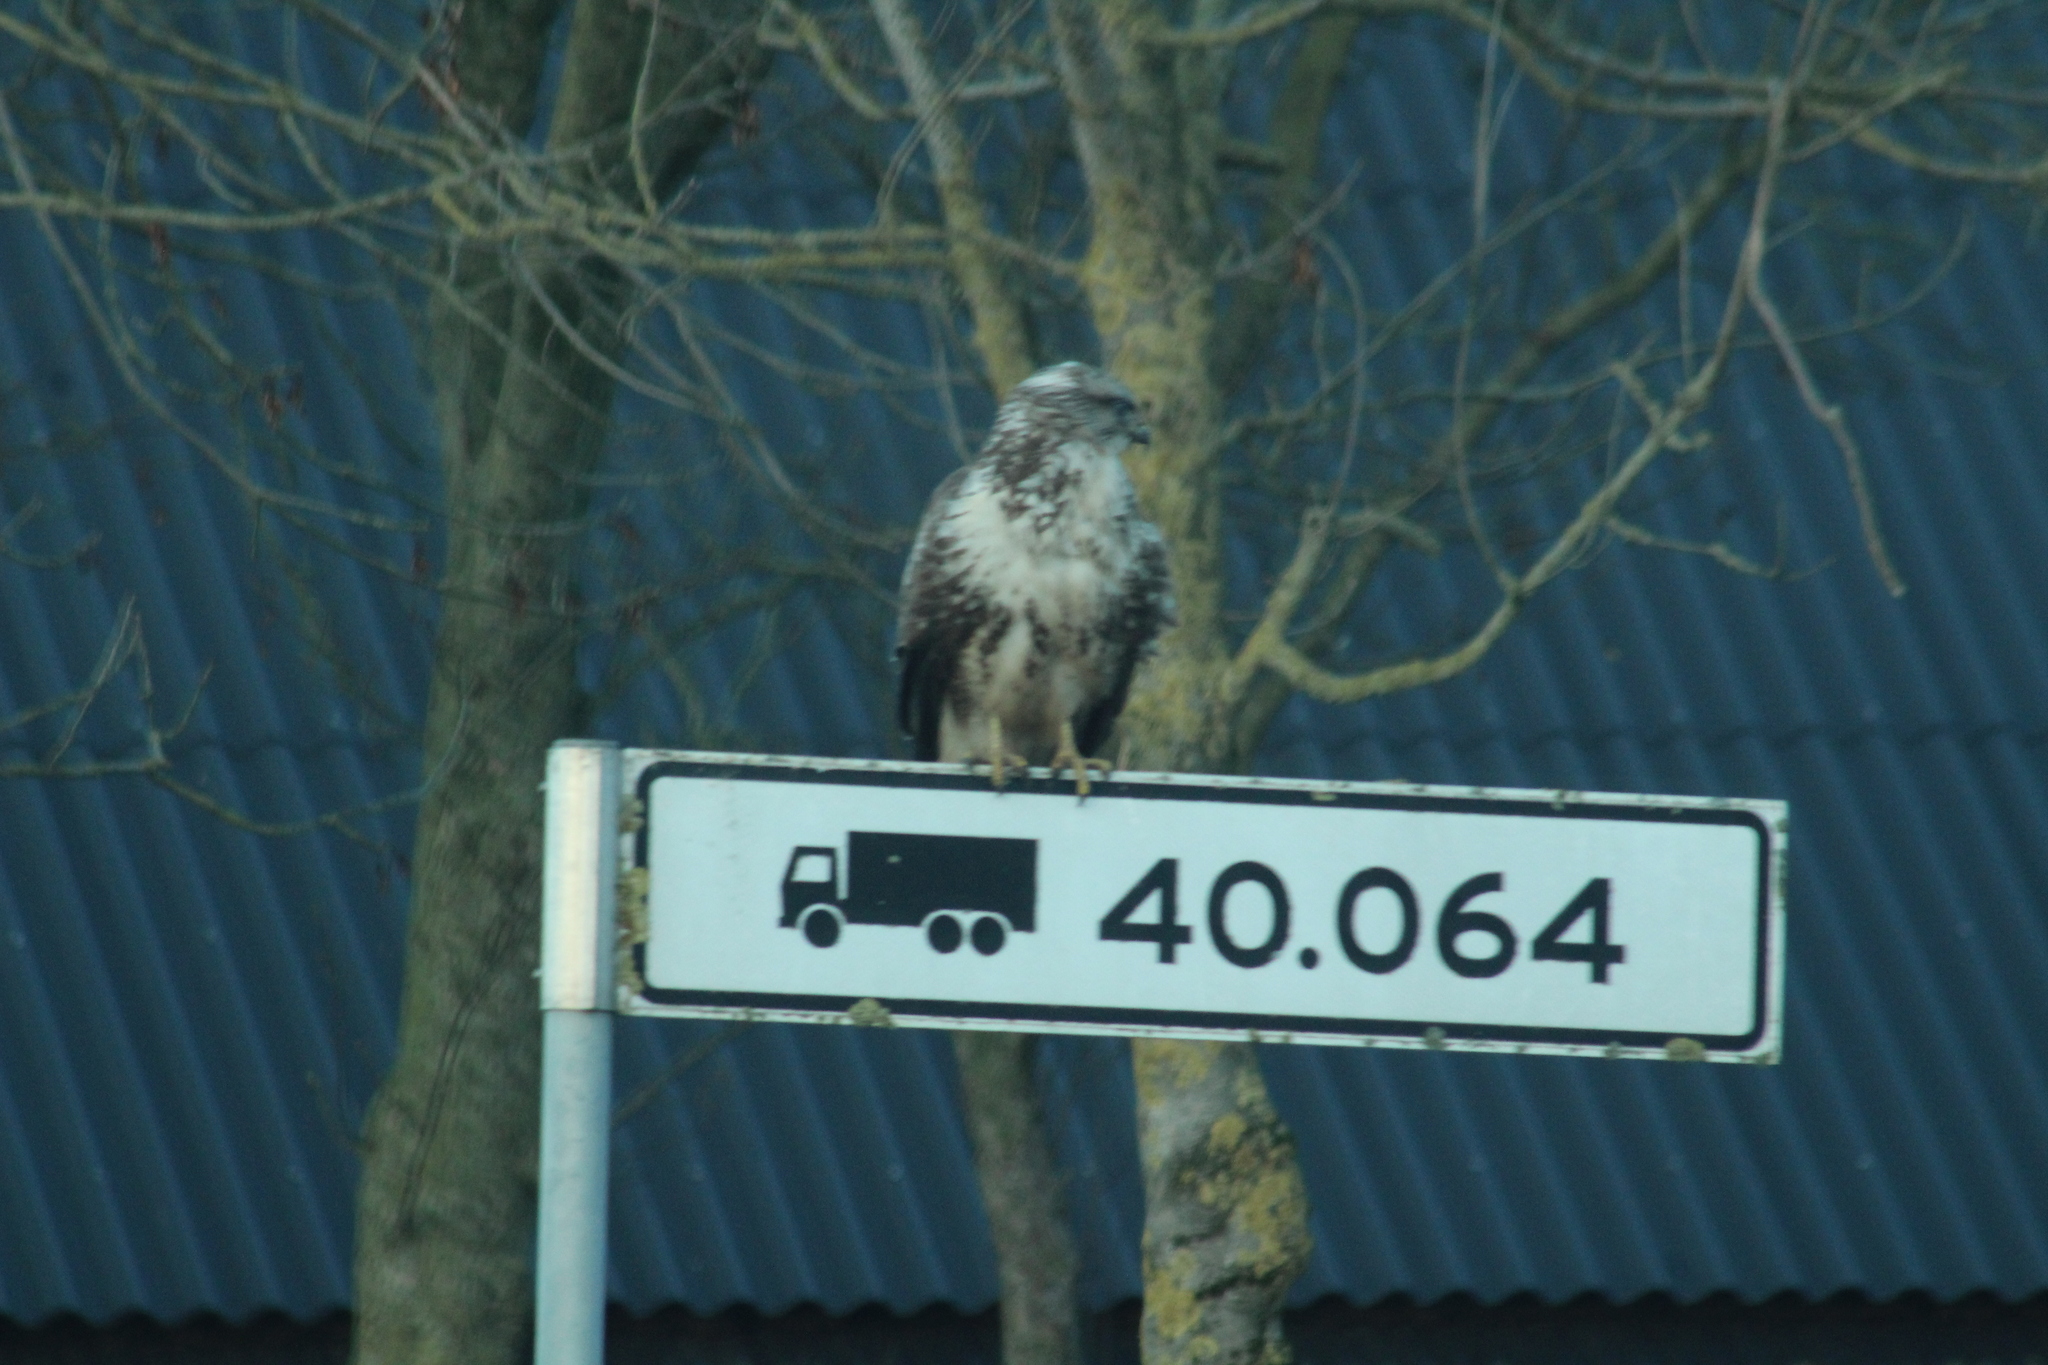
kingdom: Animalia
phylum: Chordata
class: Aves
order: Accipitriformes
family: Accipitridae
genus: Buteo
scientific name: Buteo buteo
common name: Common buzzard
